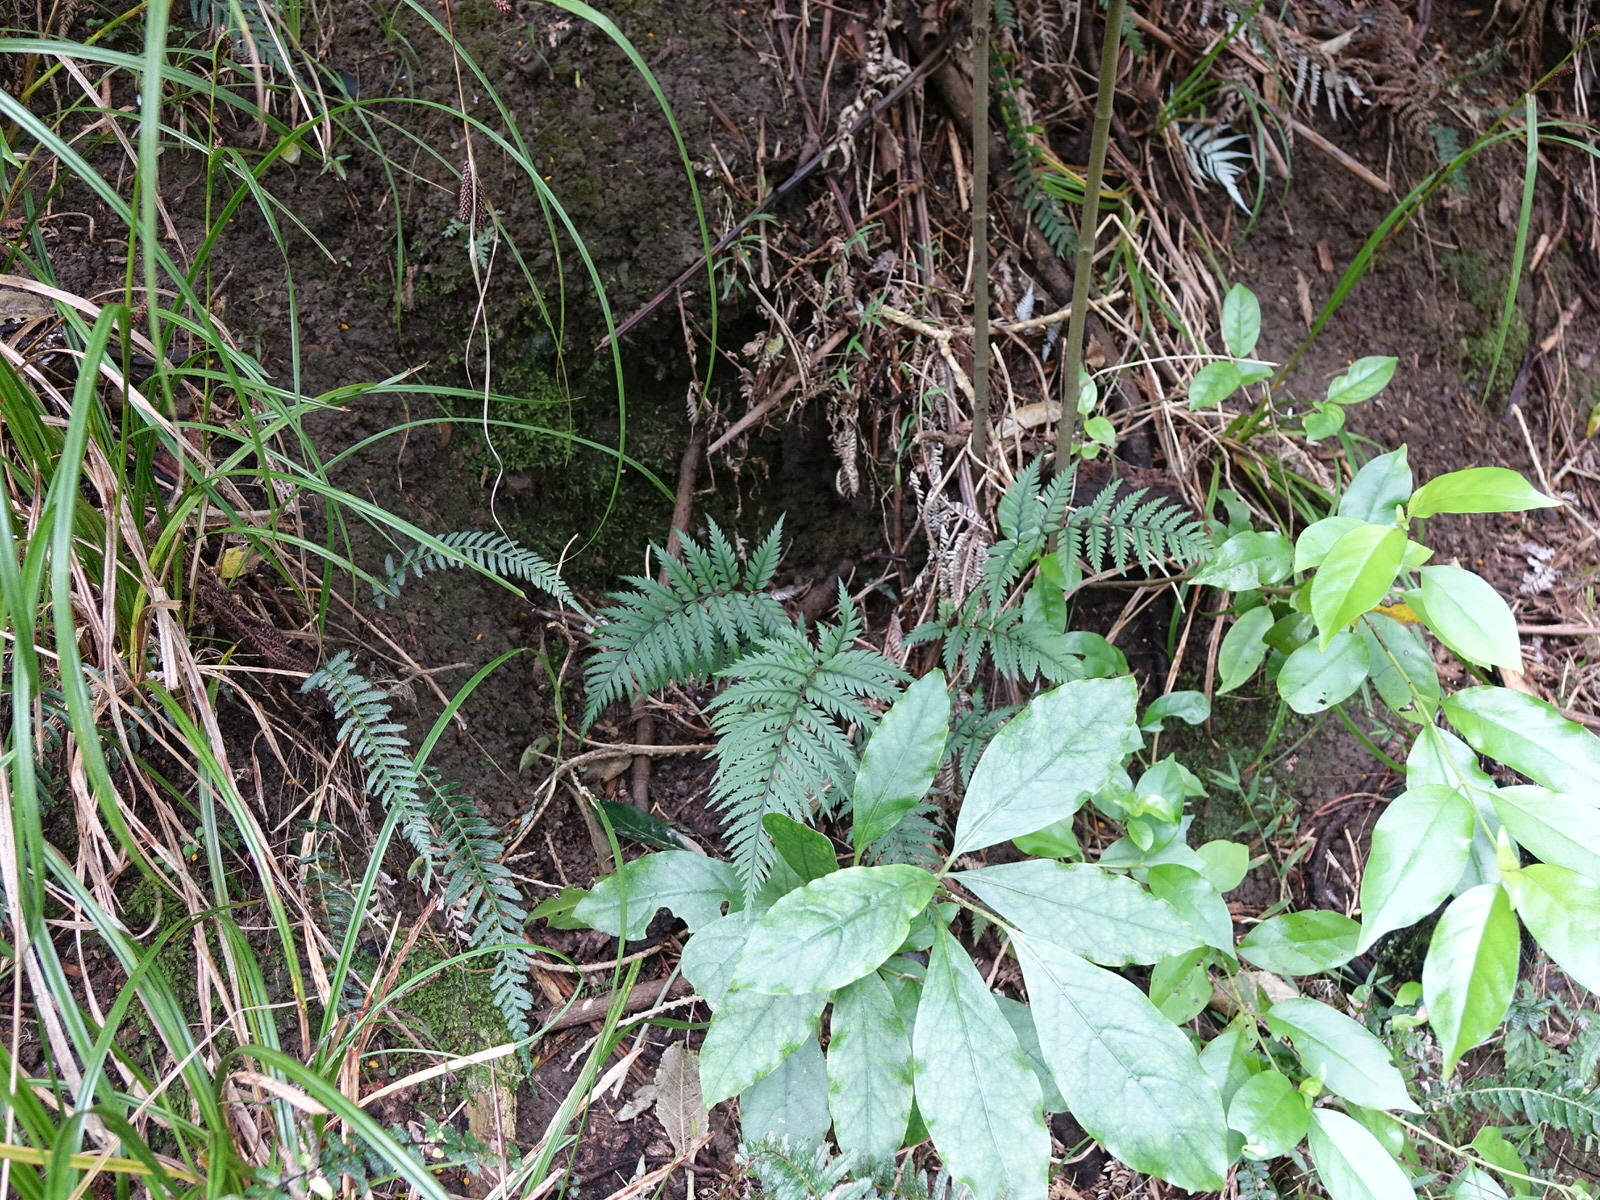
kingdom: Plantae
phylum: Tracheophyta
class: Polypodiopsida
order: Polypodiales
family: Dryopteridaceae
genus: Polystichum
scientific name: Polystichum neozelandicum
